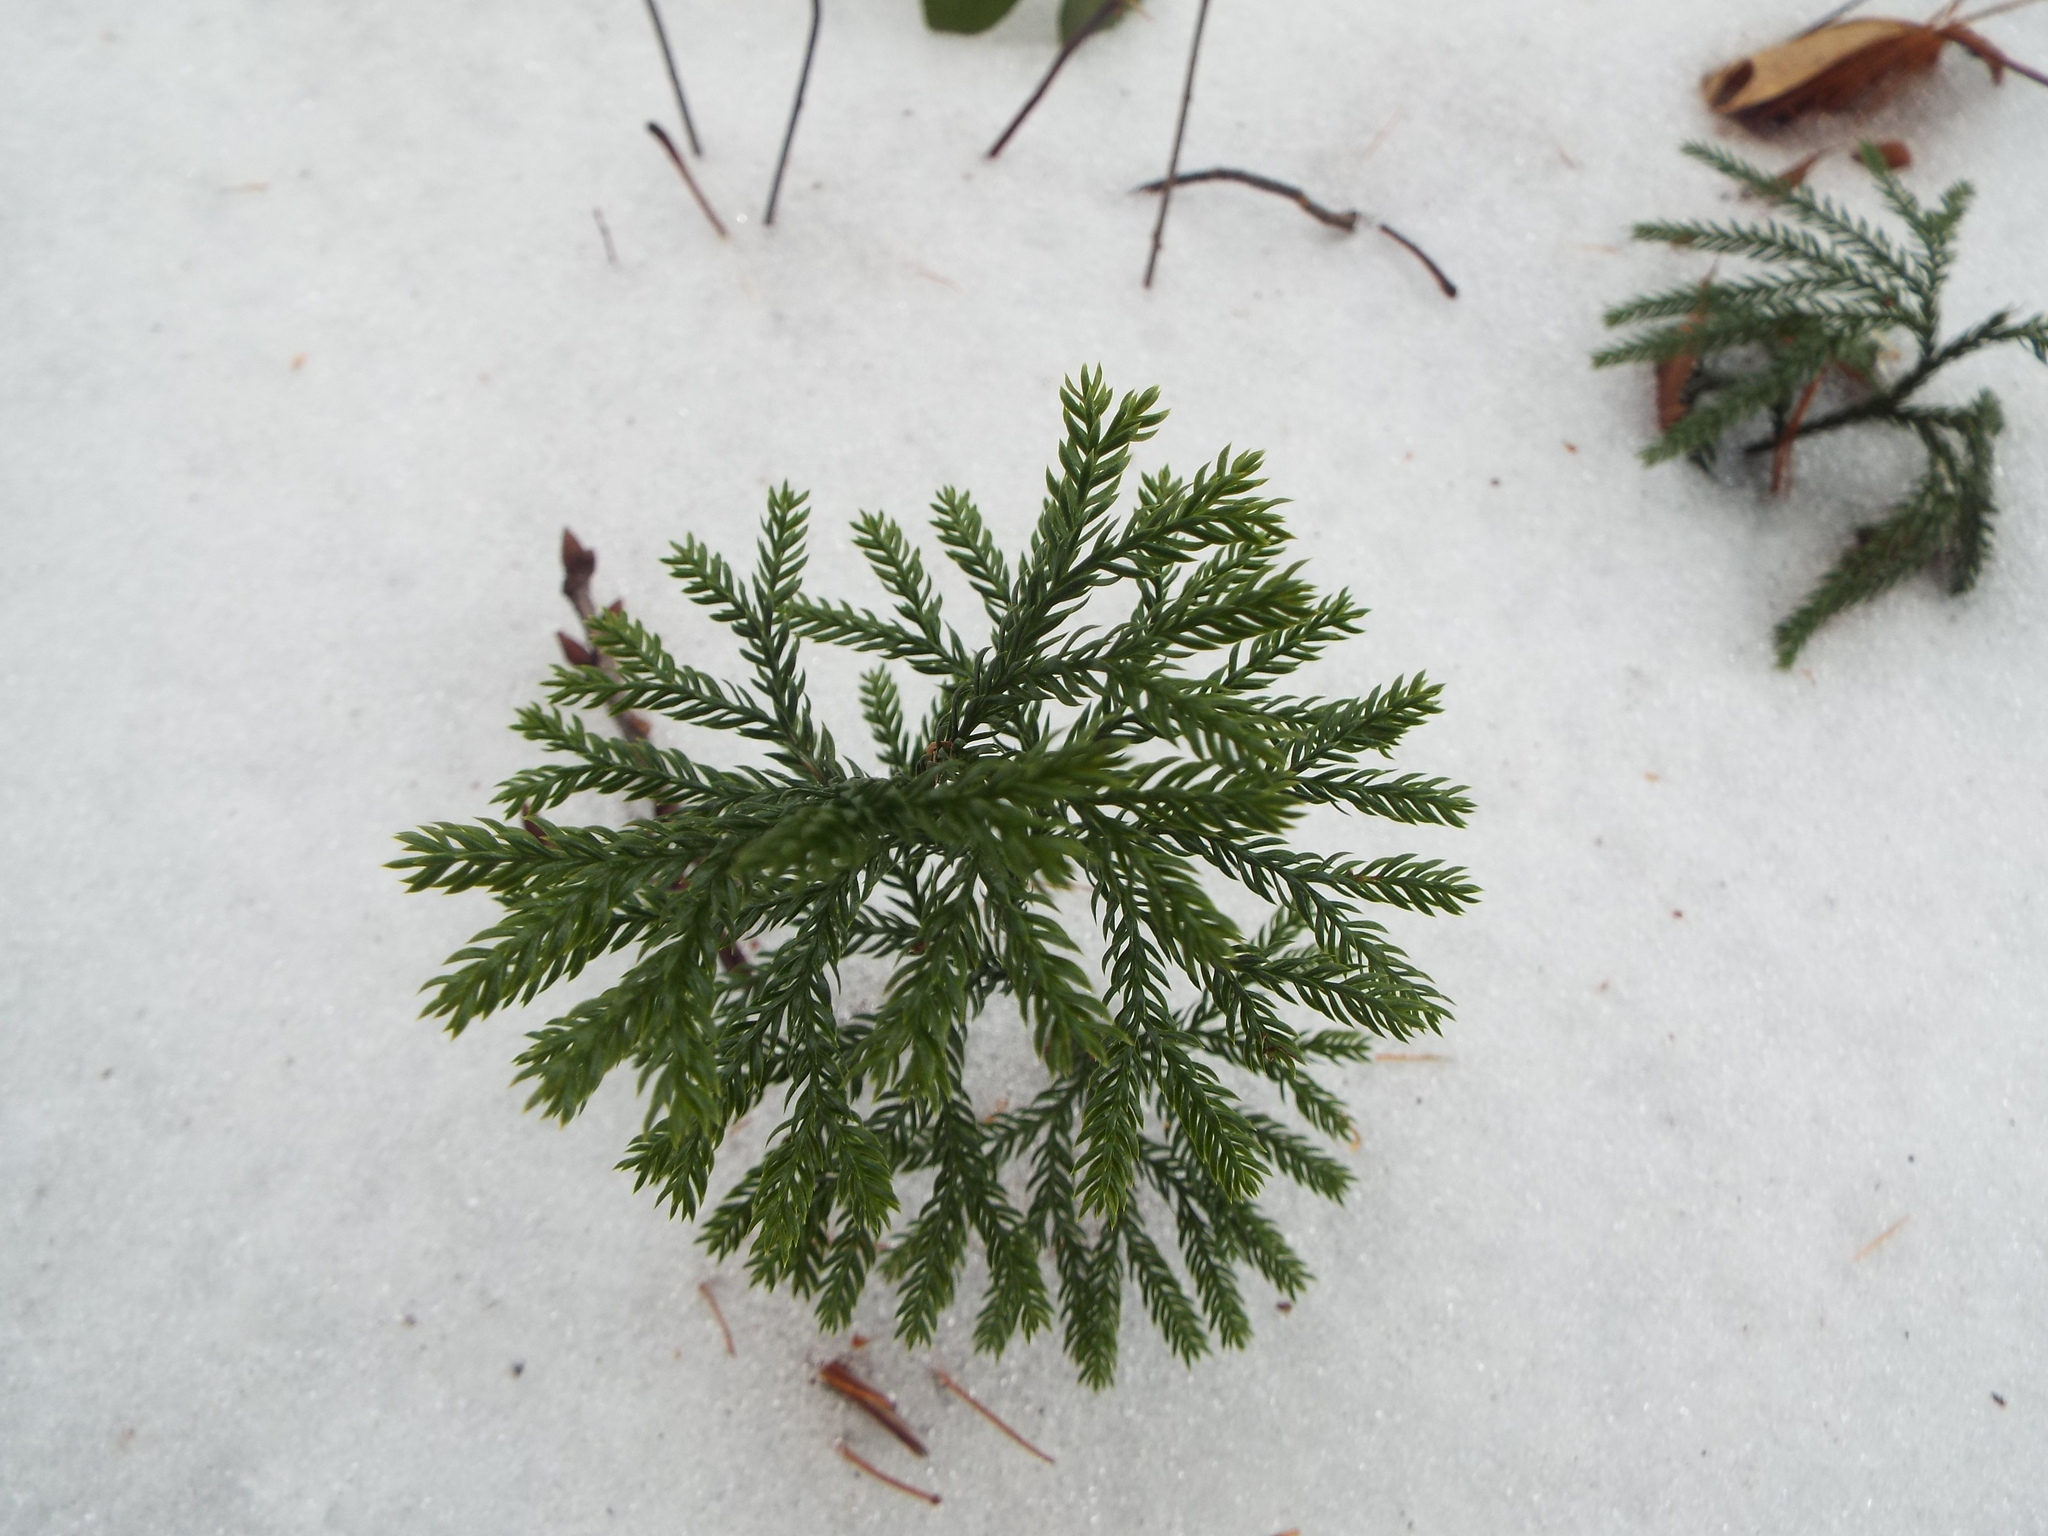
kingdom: Plantae
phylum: Tracheophyta
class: Lycopodiopsida
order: Lycopodiales
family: Lycopodiaceae
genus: Dendrolycopodium
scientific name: Dendrolycopodium obscurum
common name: Common ground-pine
